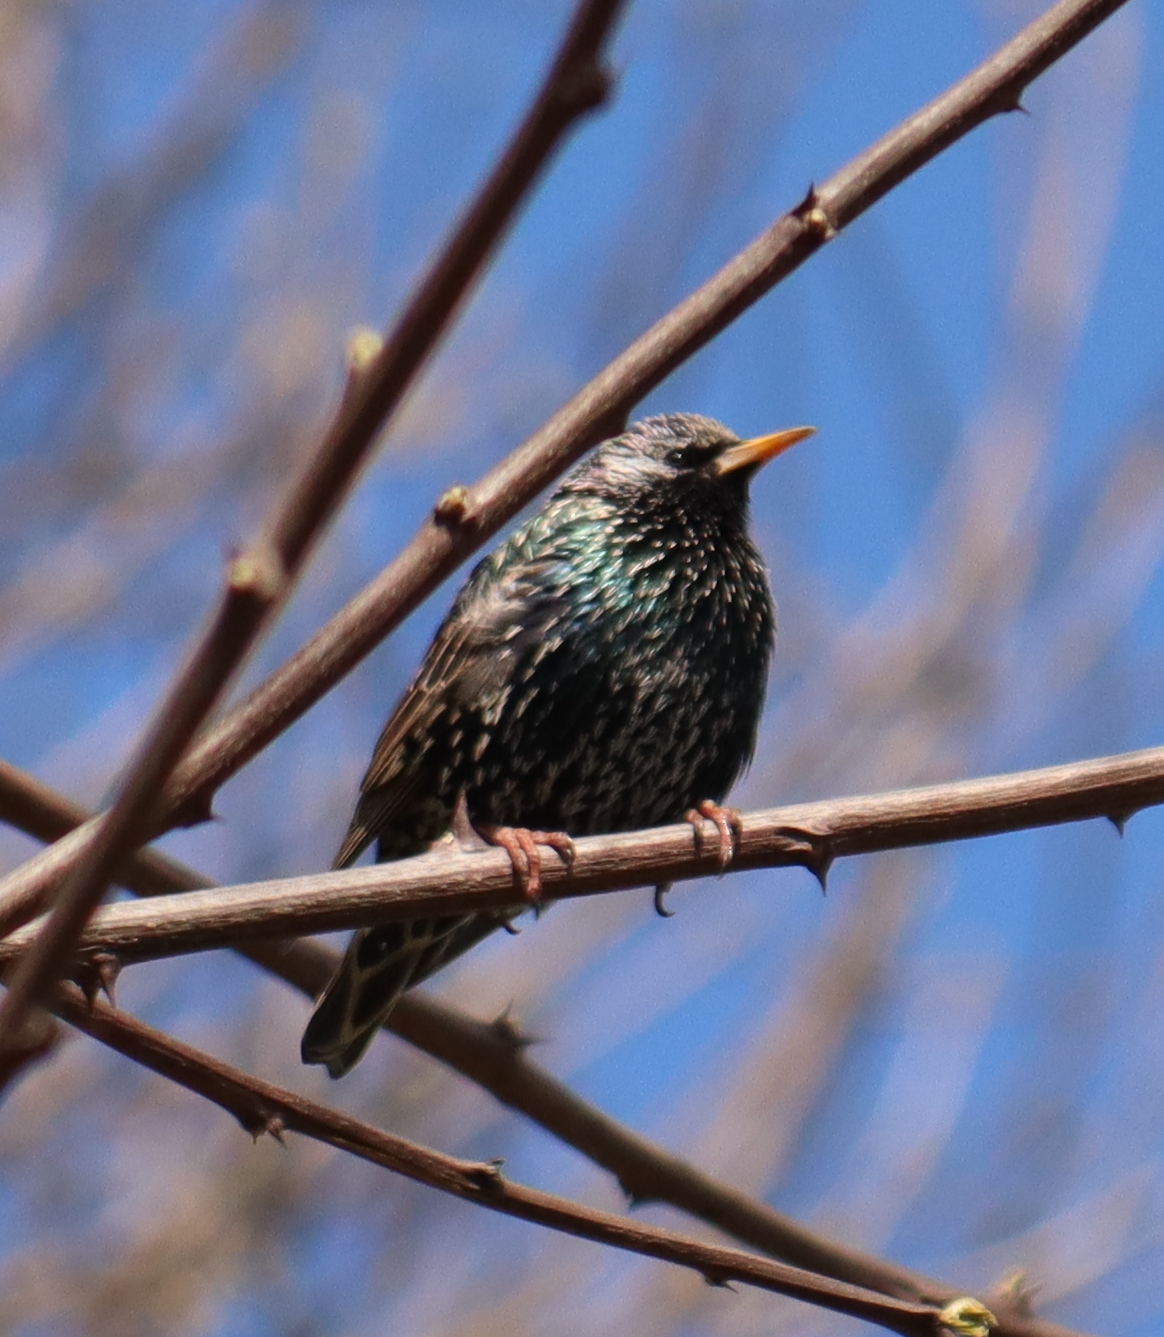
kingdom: Animalia
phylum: Chordata
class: Aves
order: Passeriformes
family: Sturnidae
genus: Sturnus
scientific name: Sturnus vulgaris
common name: Common starling
